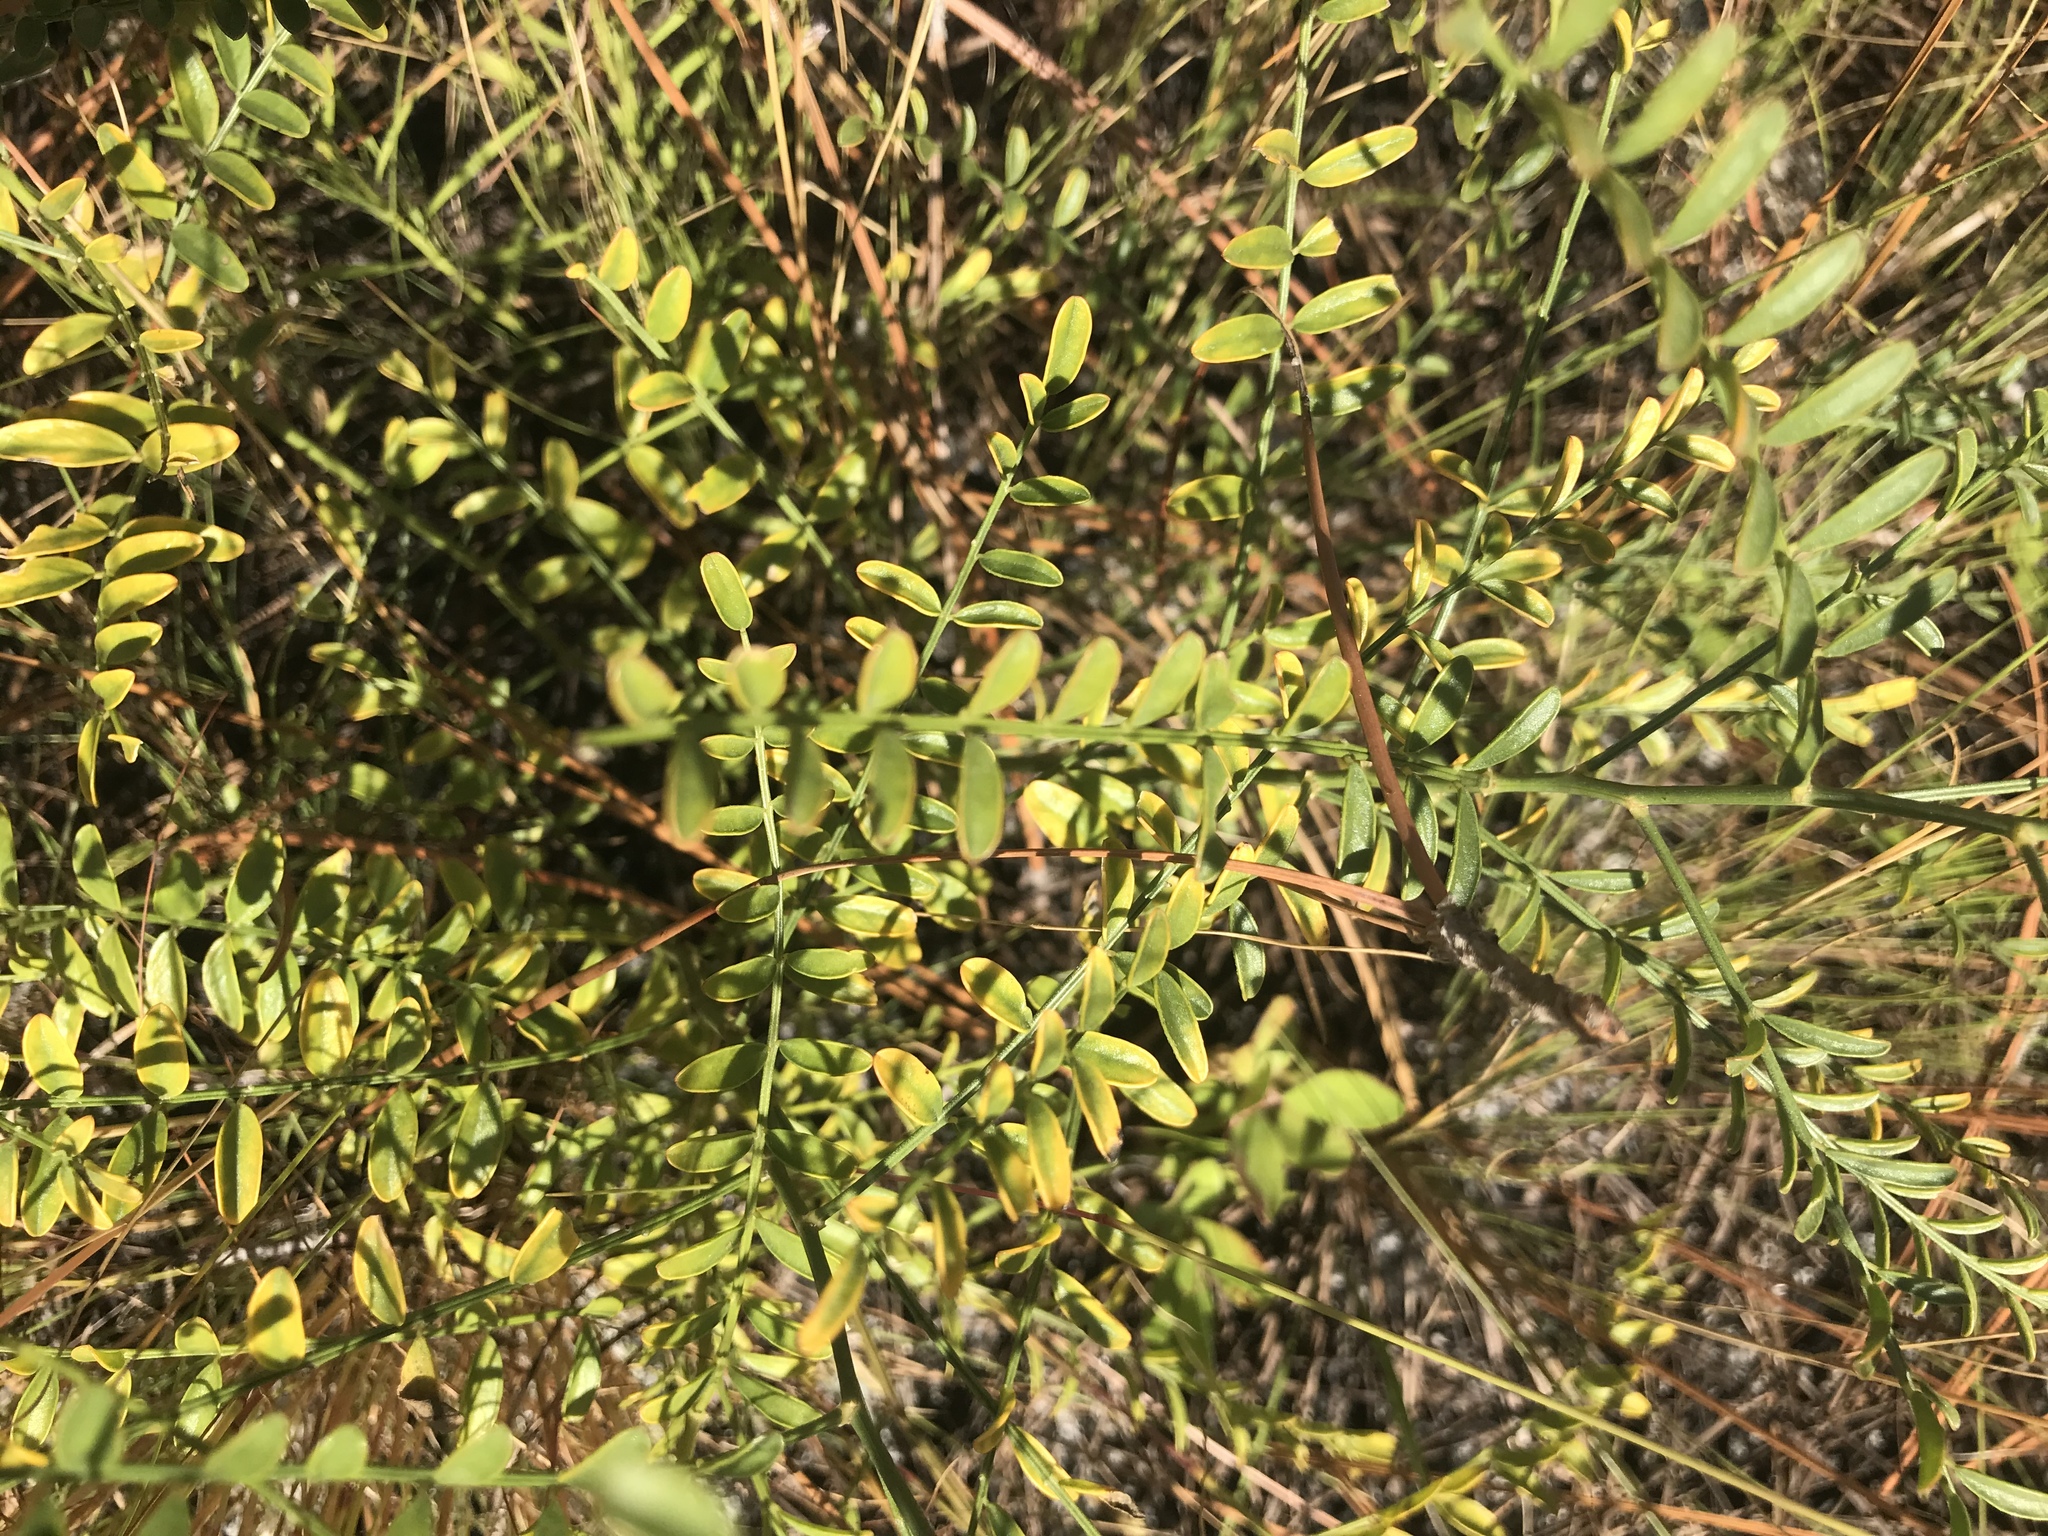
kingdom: Plantae
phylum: Tracheophyta
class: Magnoliopsida
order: Fabales
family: Fabaceae
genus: Astragalus
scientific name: Astragalus michauxii
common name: Michaux milk-vetch
